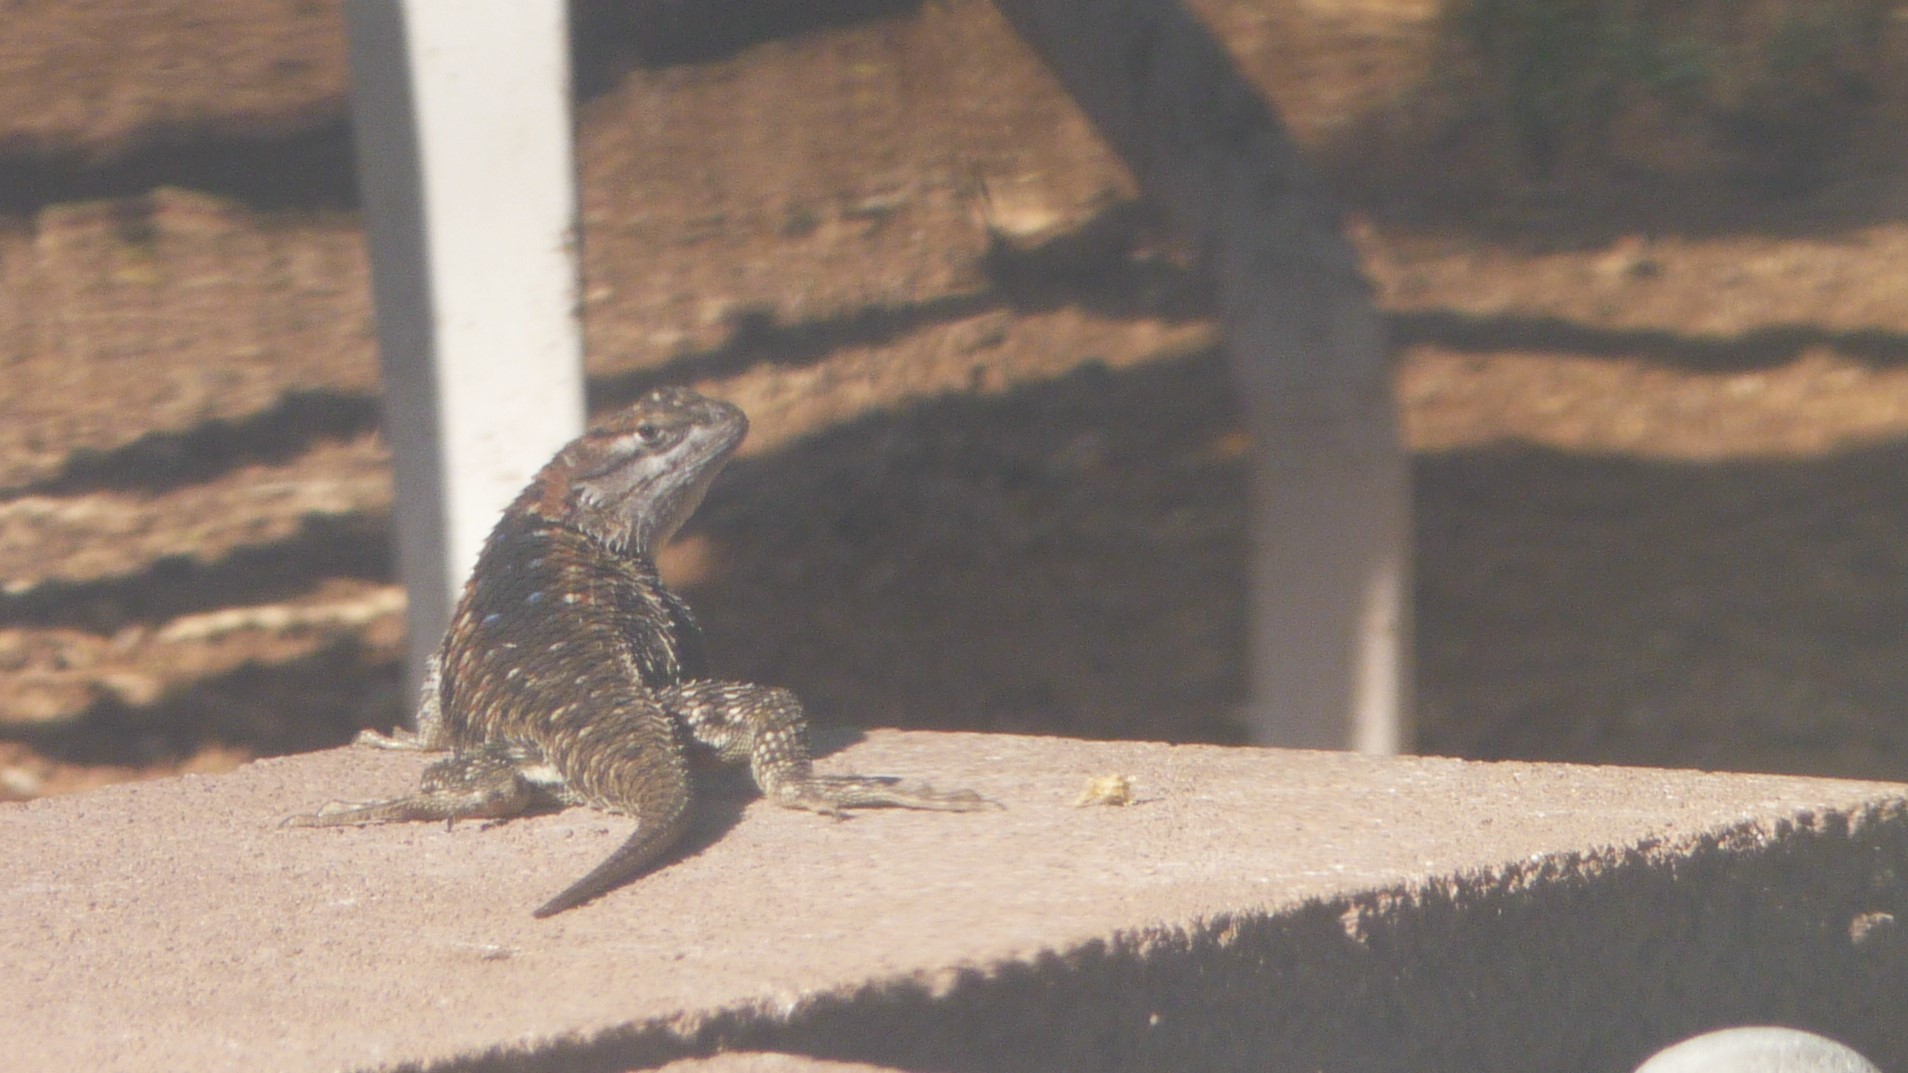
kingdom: Animalia
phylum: Chordata
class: Squamata
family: Phrynosomatidae
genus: Sceloporus
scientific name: Sceloporus magister
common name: Desert spiny lizard
